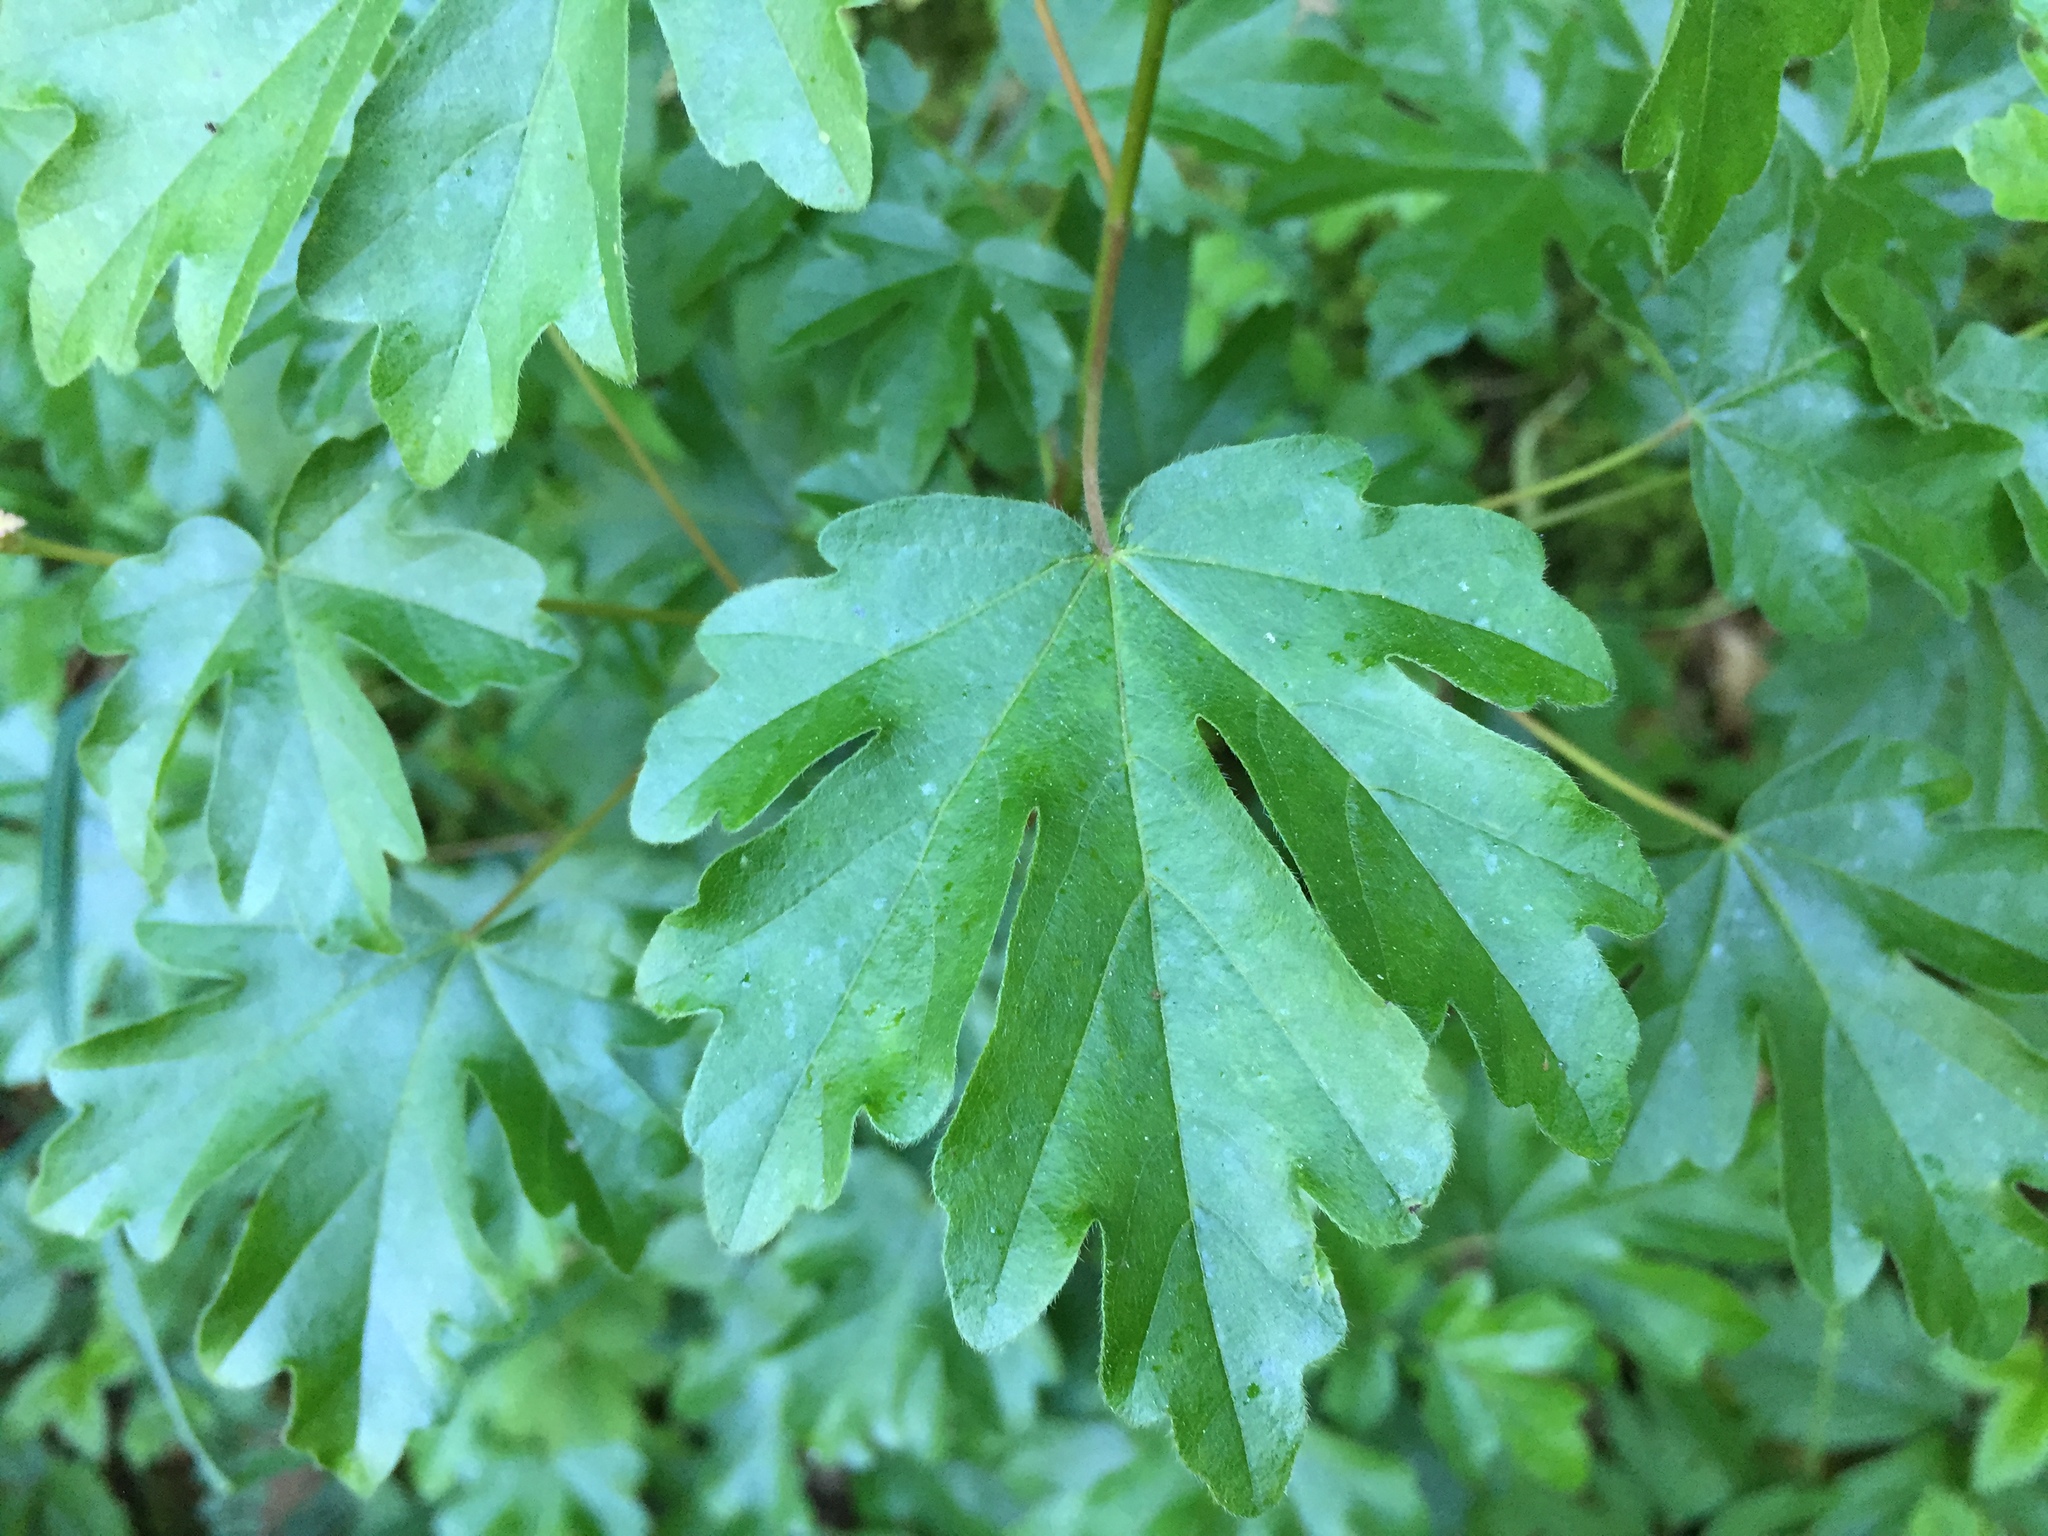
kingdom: Plantae
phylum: Tracheophyta
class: Magnoliopsida
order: Sapindales
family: Sapindaceae
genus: Acer
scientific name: Acer campestre
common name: Field maple
